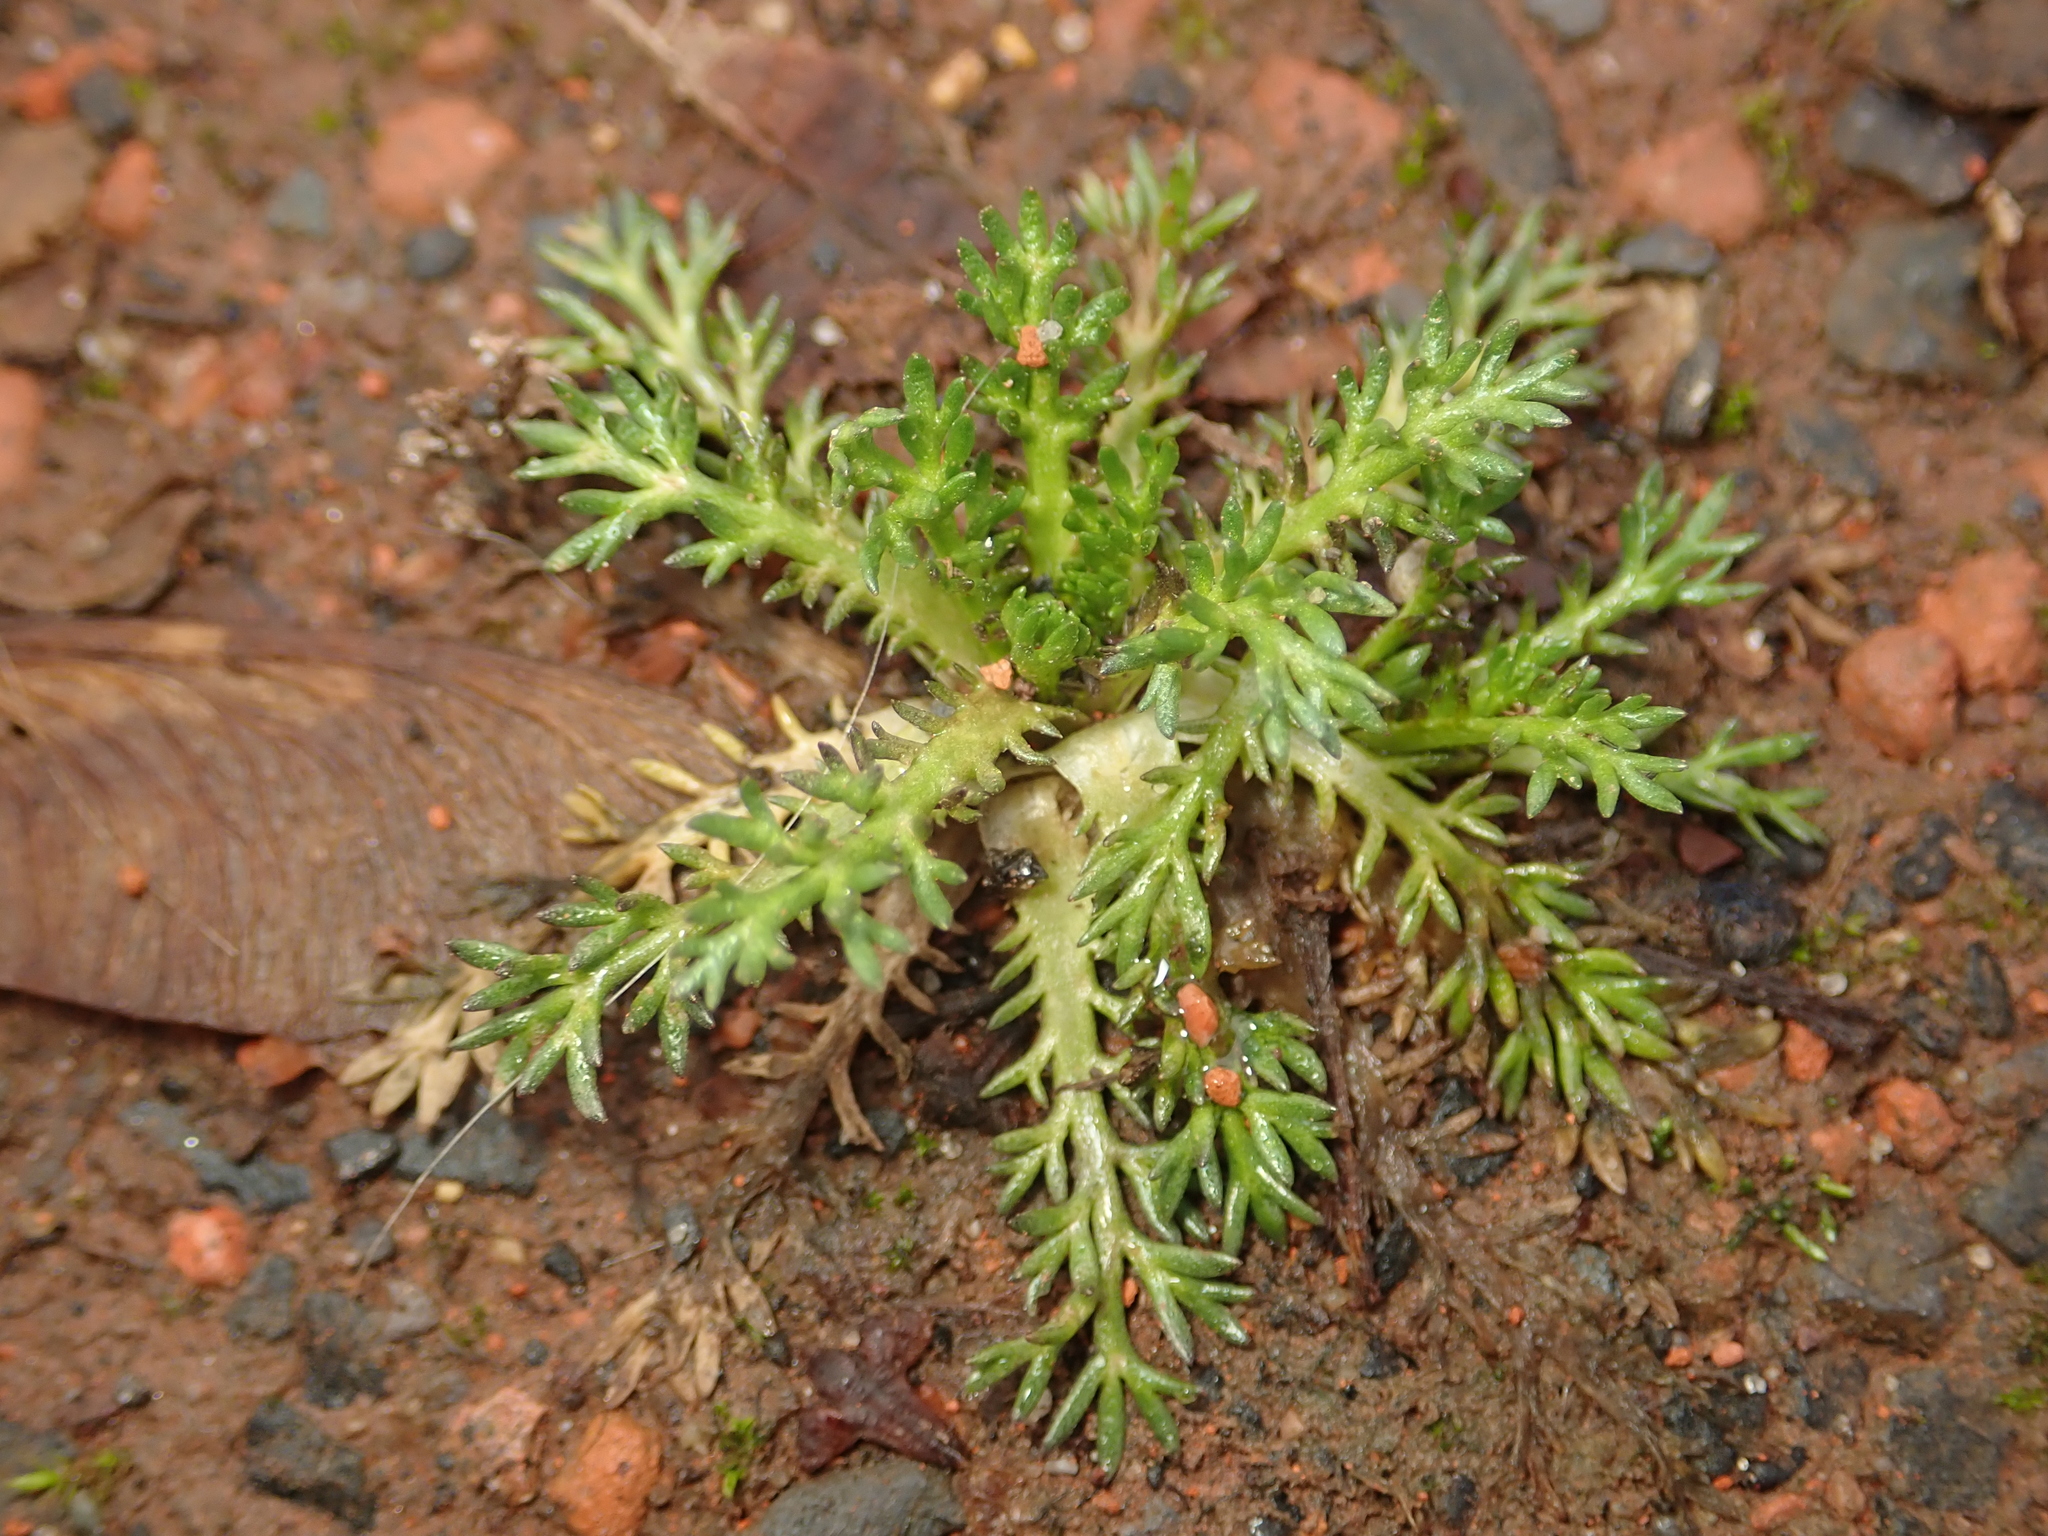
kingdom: Plantae
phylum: Tracheophyta
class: Magnoliopsida
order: Asterales
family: Asteraceae
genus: Matricaria
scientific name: Matricaria discoidea
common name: Disc mayweed
